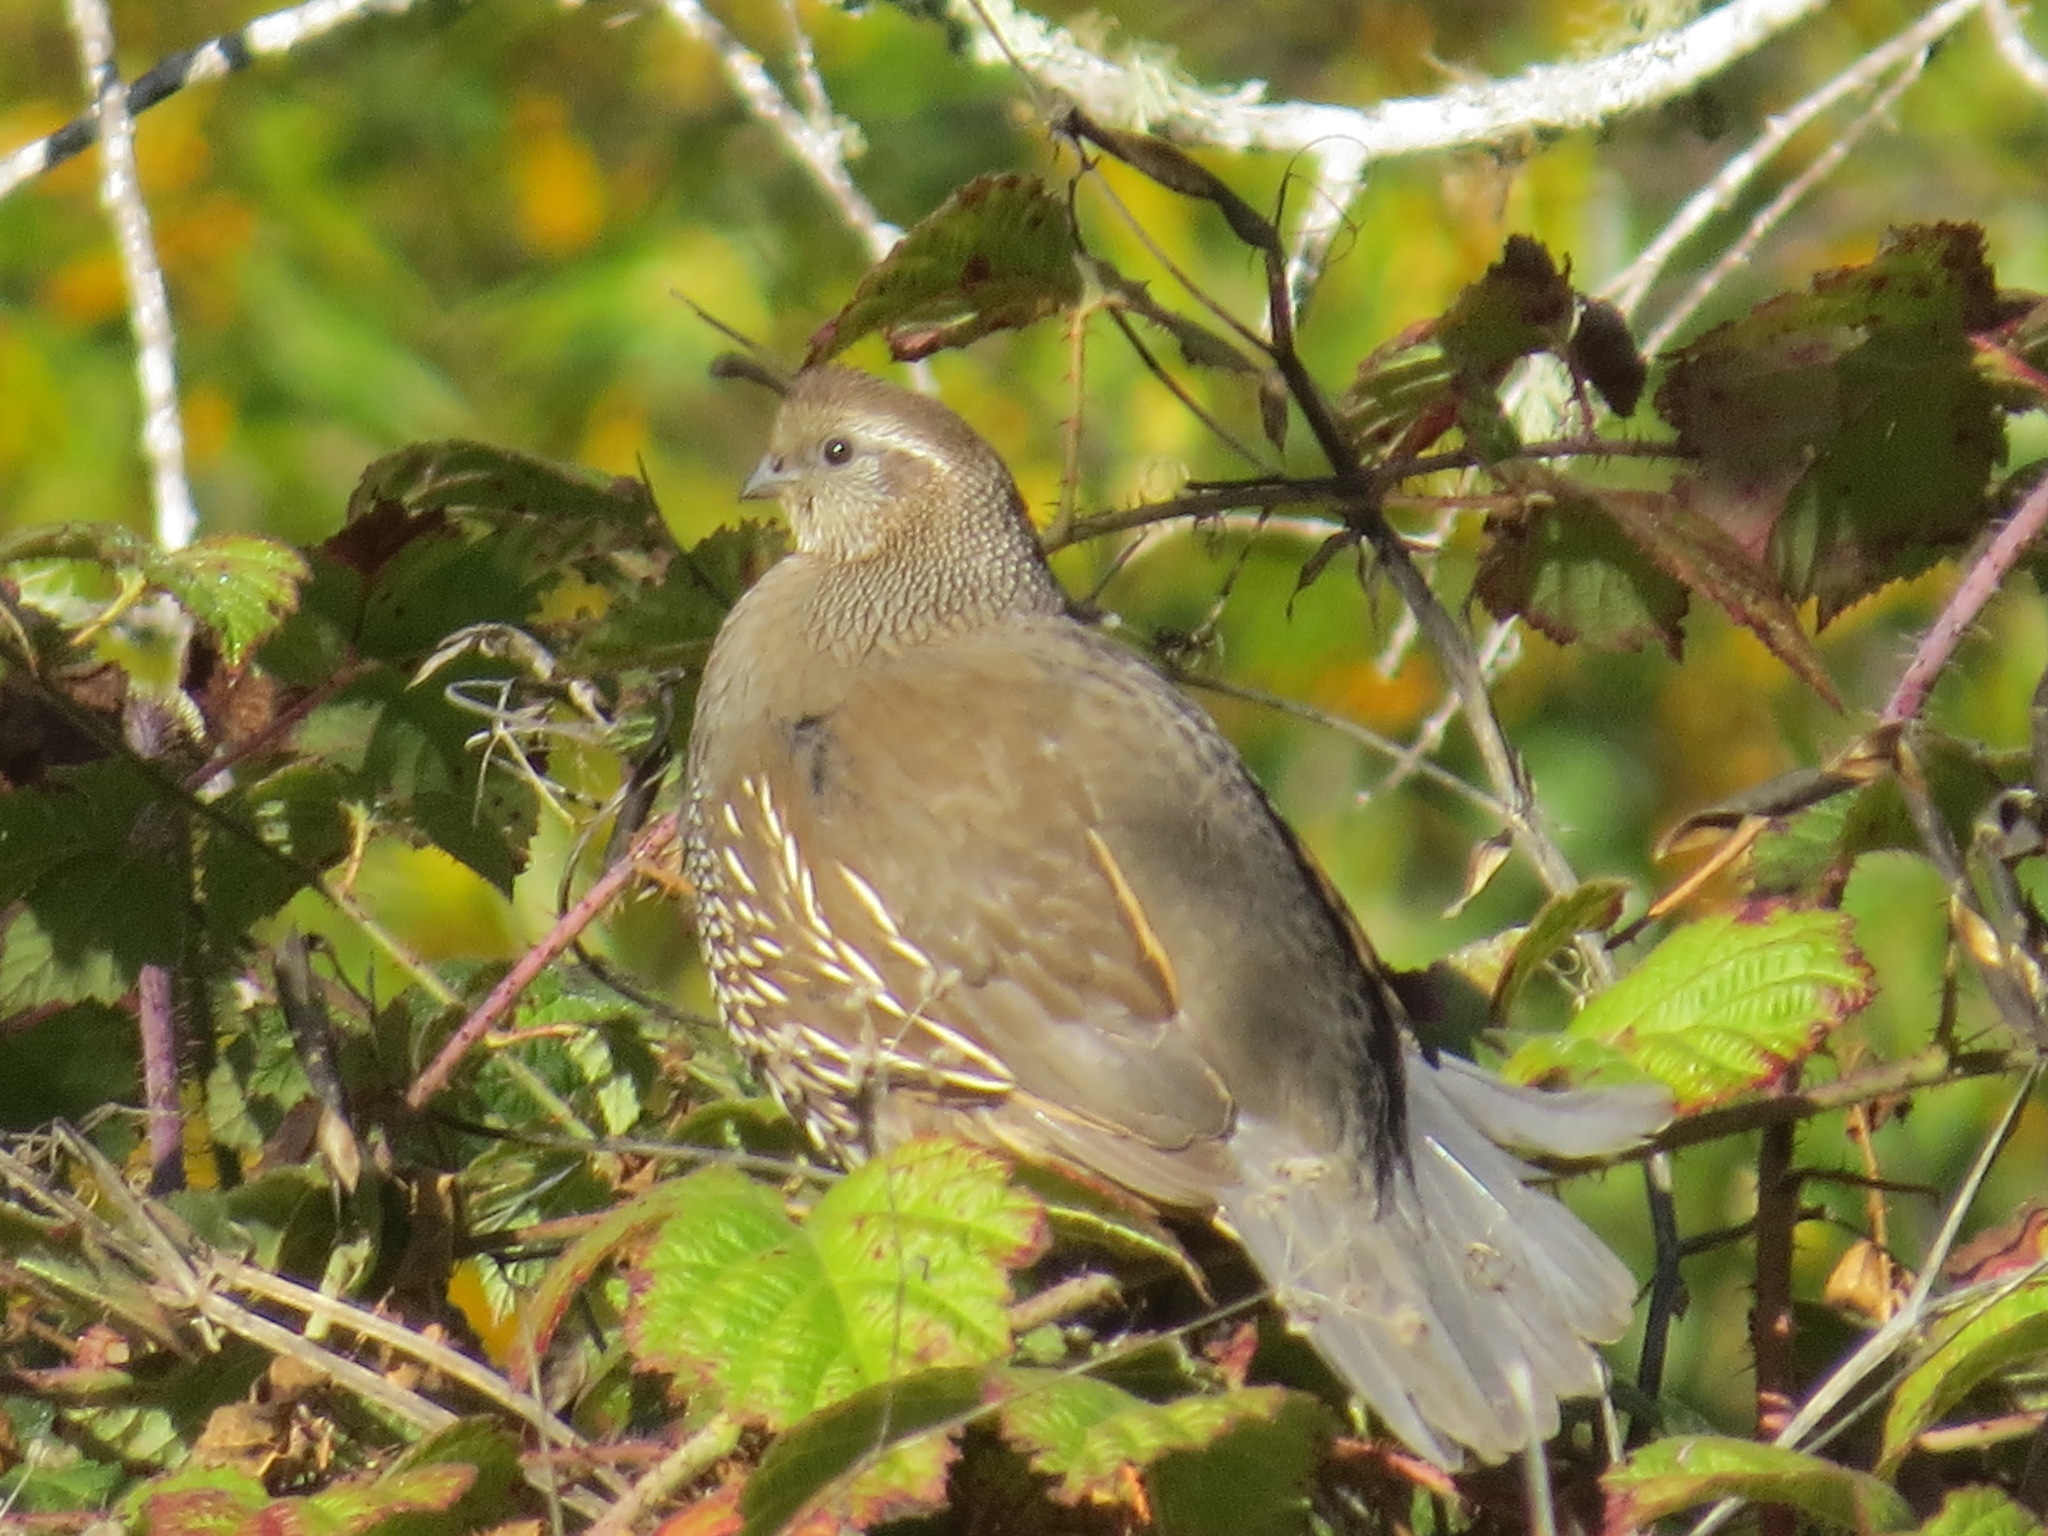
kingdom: Animalia
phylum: Chordata
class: Aves
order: Galliformes
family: Odontophoridae
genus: Callipepla
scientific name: Callipepla californica
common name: California quail
